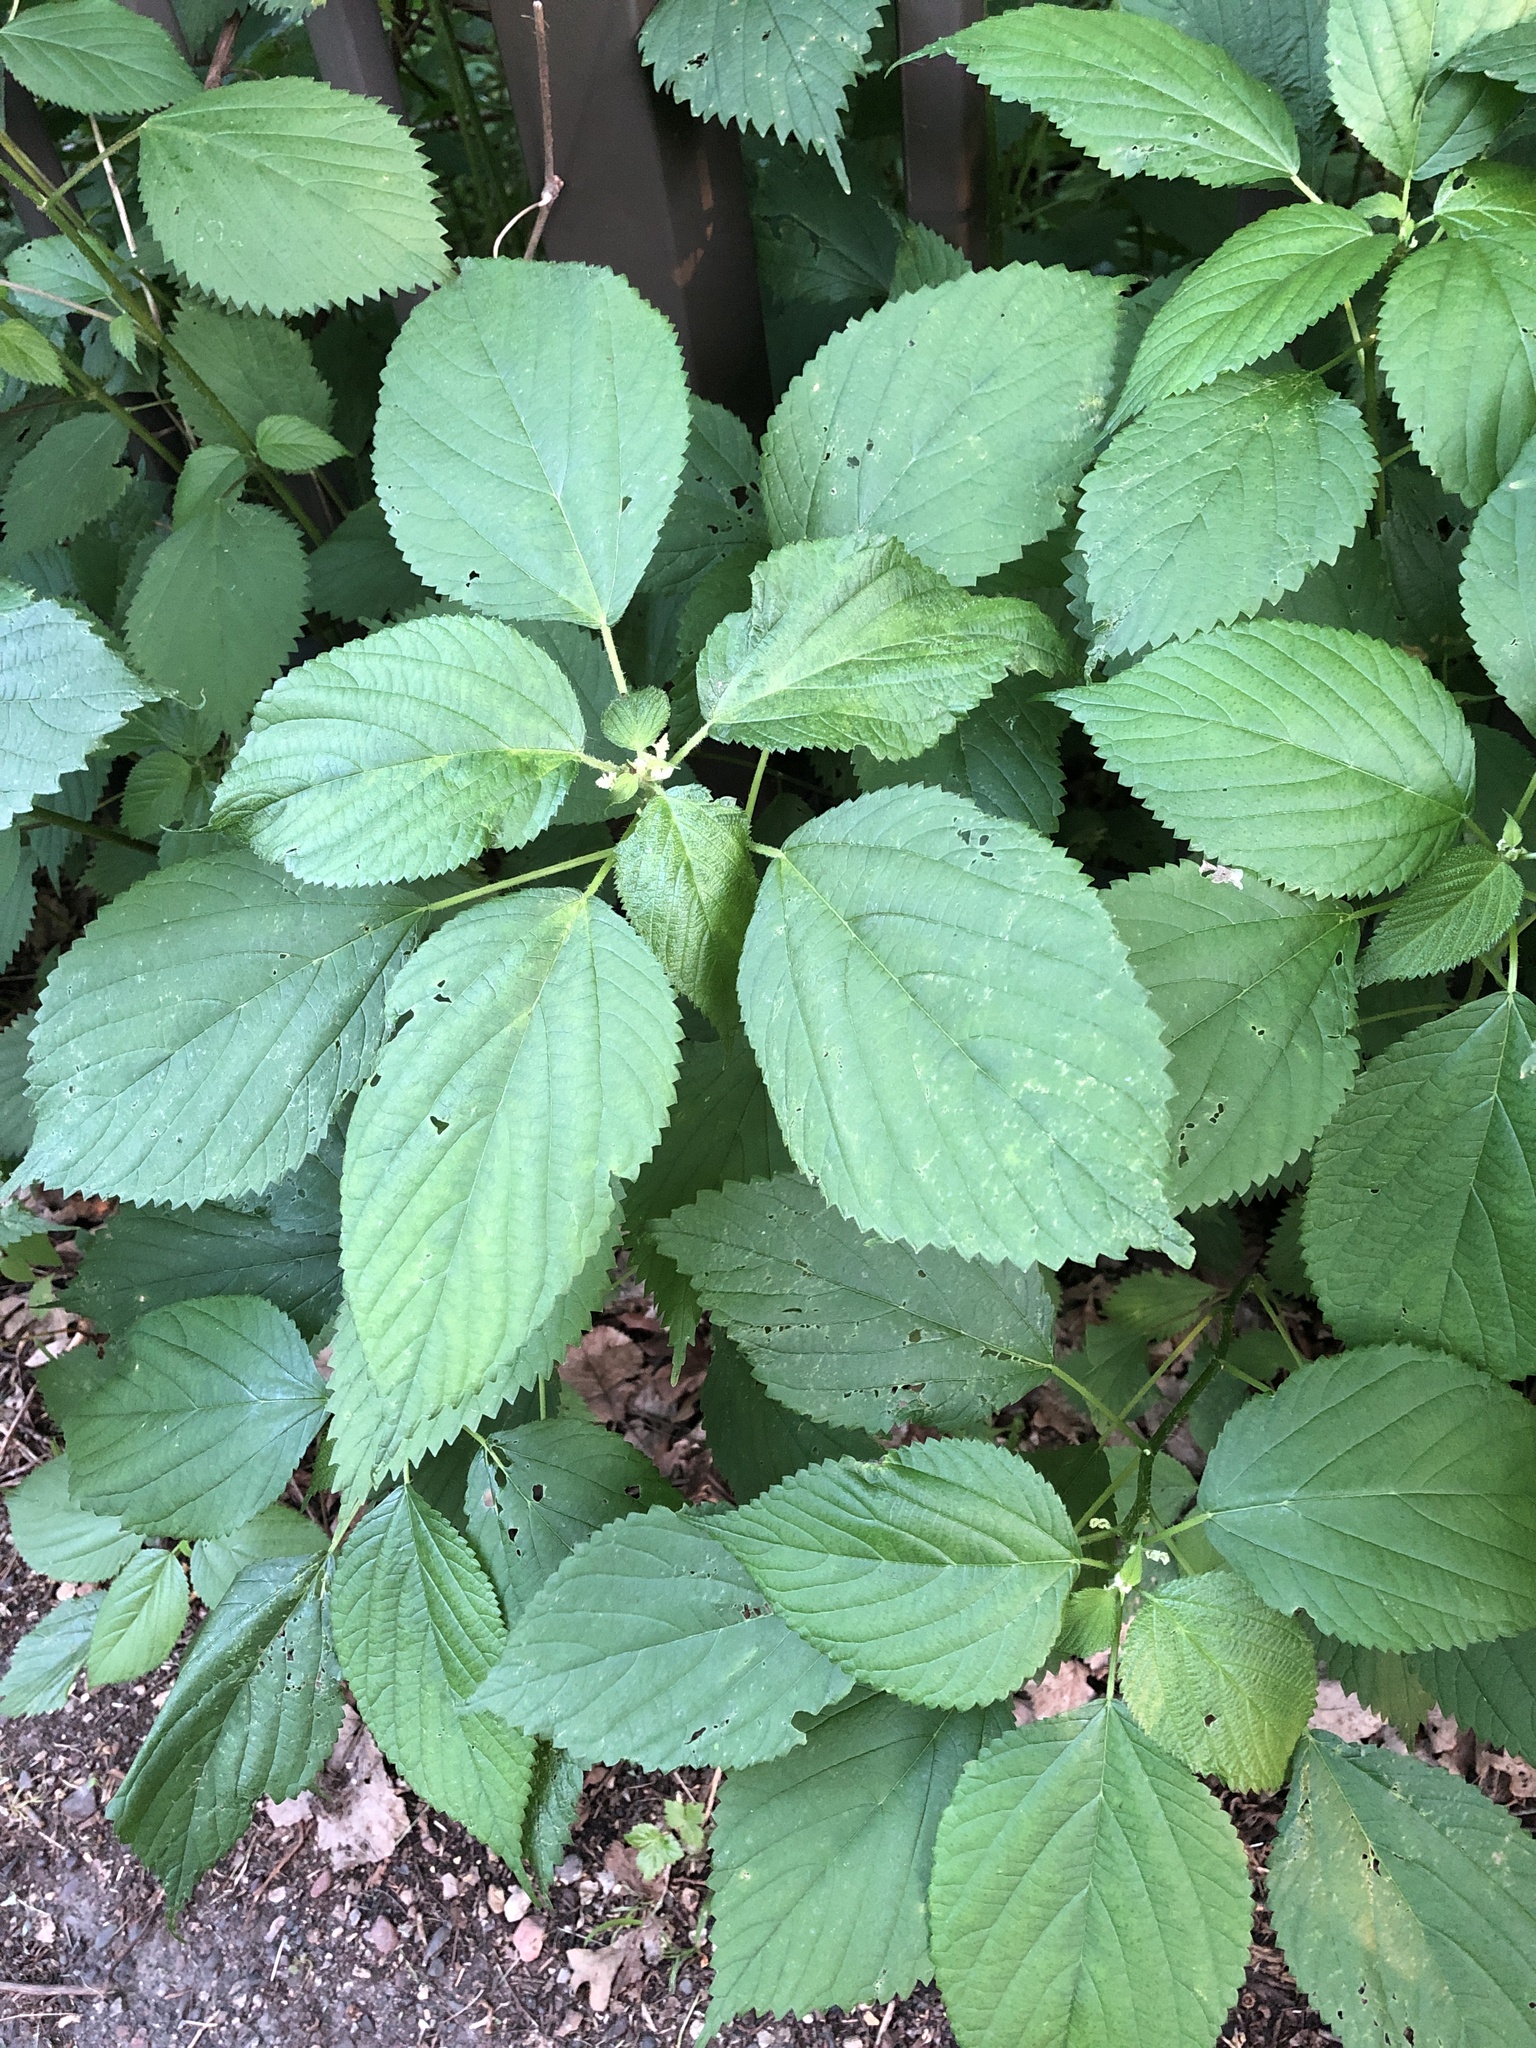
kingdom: Plantae
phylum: Tracheophyta
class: Magnoliopsida
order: Rosales
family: Urticaceae
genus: Laportea
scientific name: Laportea canadensis
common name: Canada nettle
